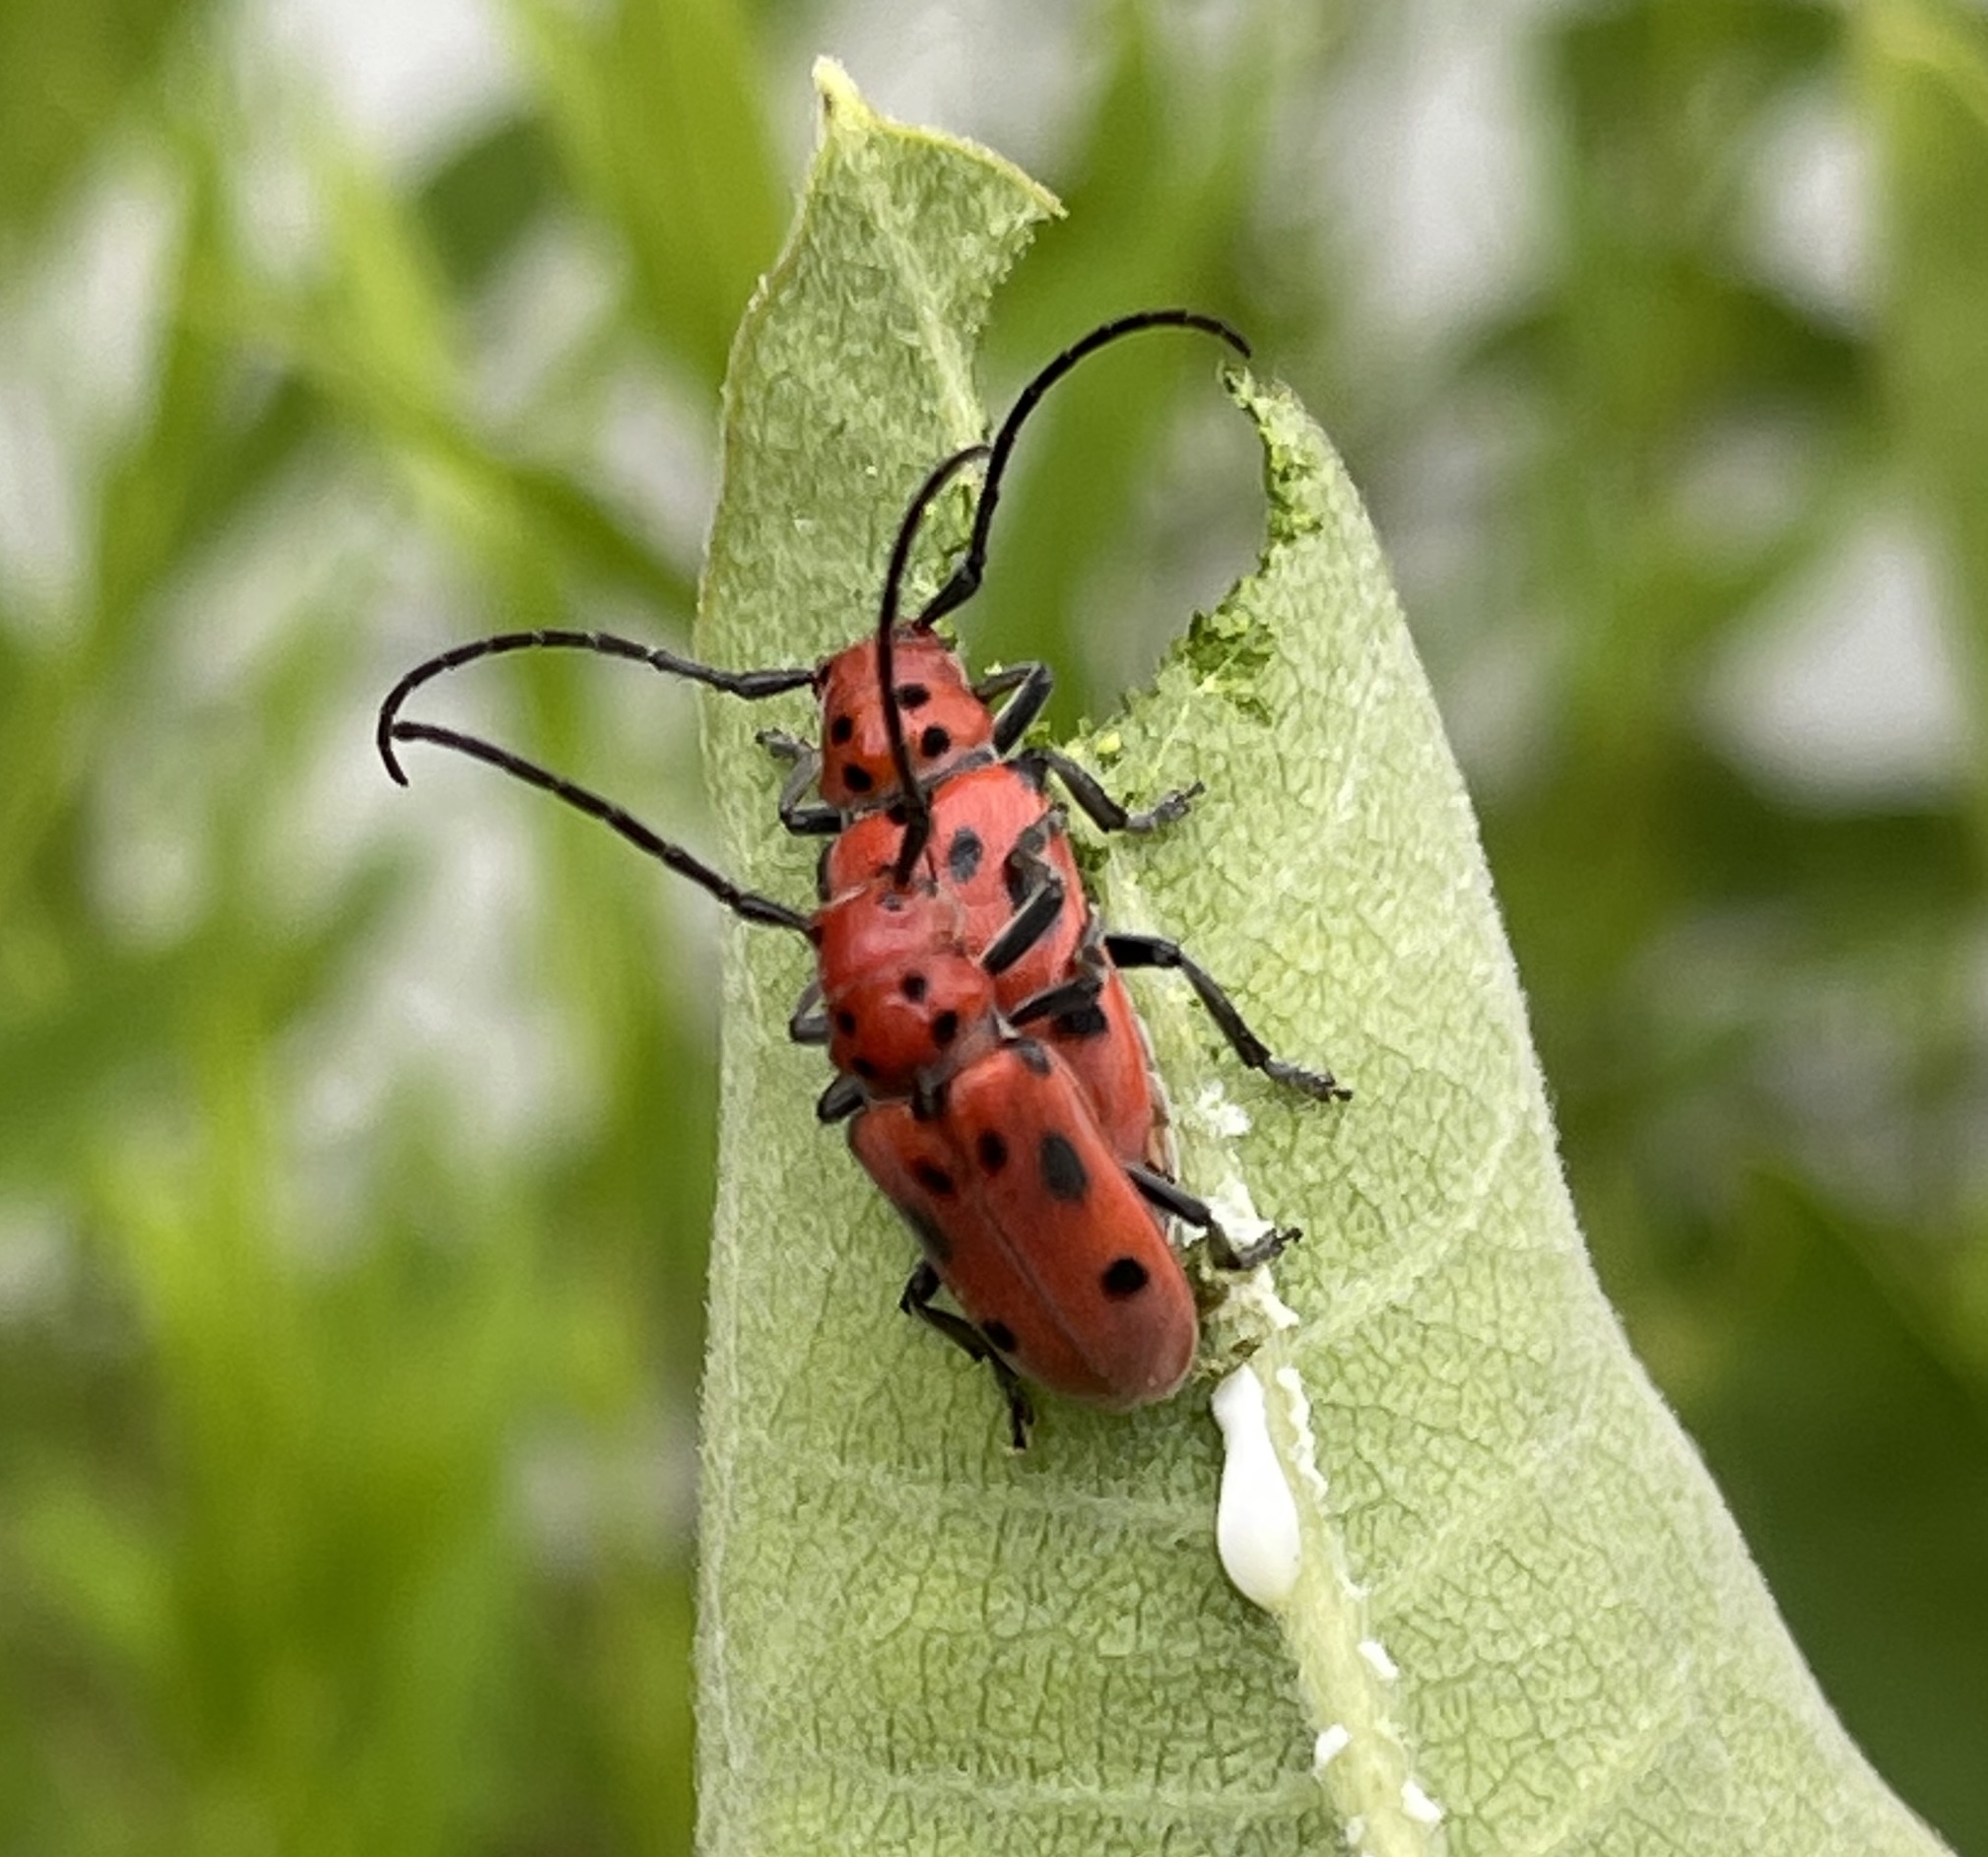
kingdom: Animalia
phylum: Arthropoda
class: Insecta
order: Coleoptera
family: Cerambycidae
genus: Tetraopes
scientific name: Tetraopes tetrophthalmus
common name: Red milkweed beetle
